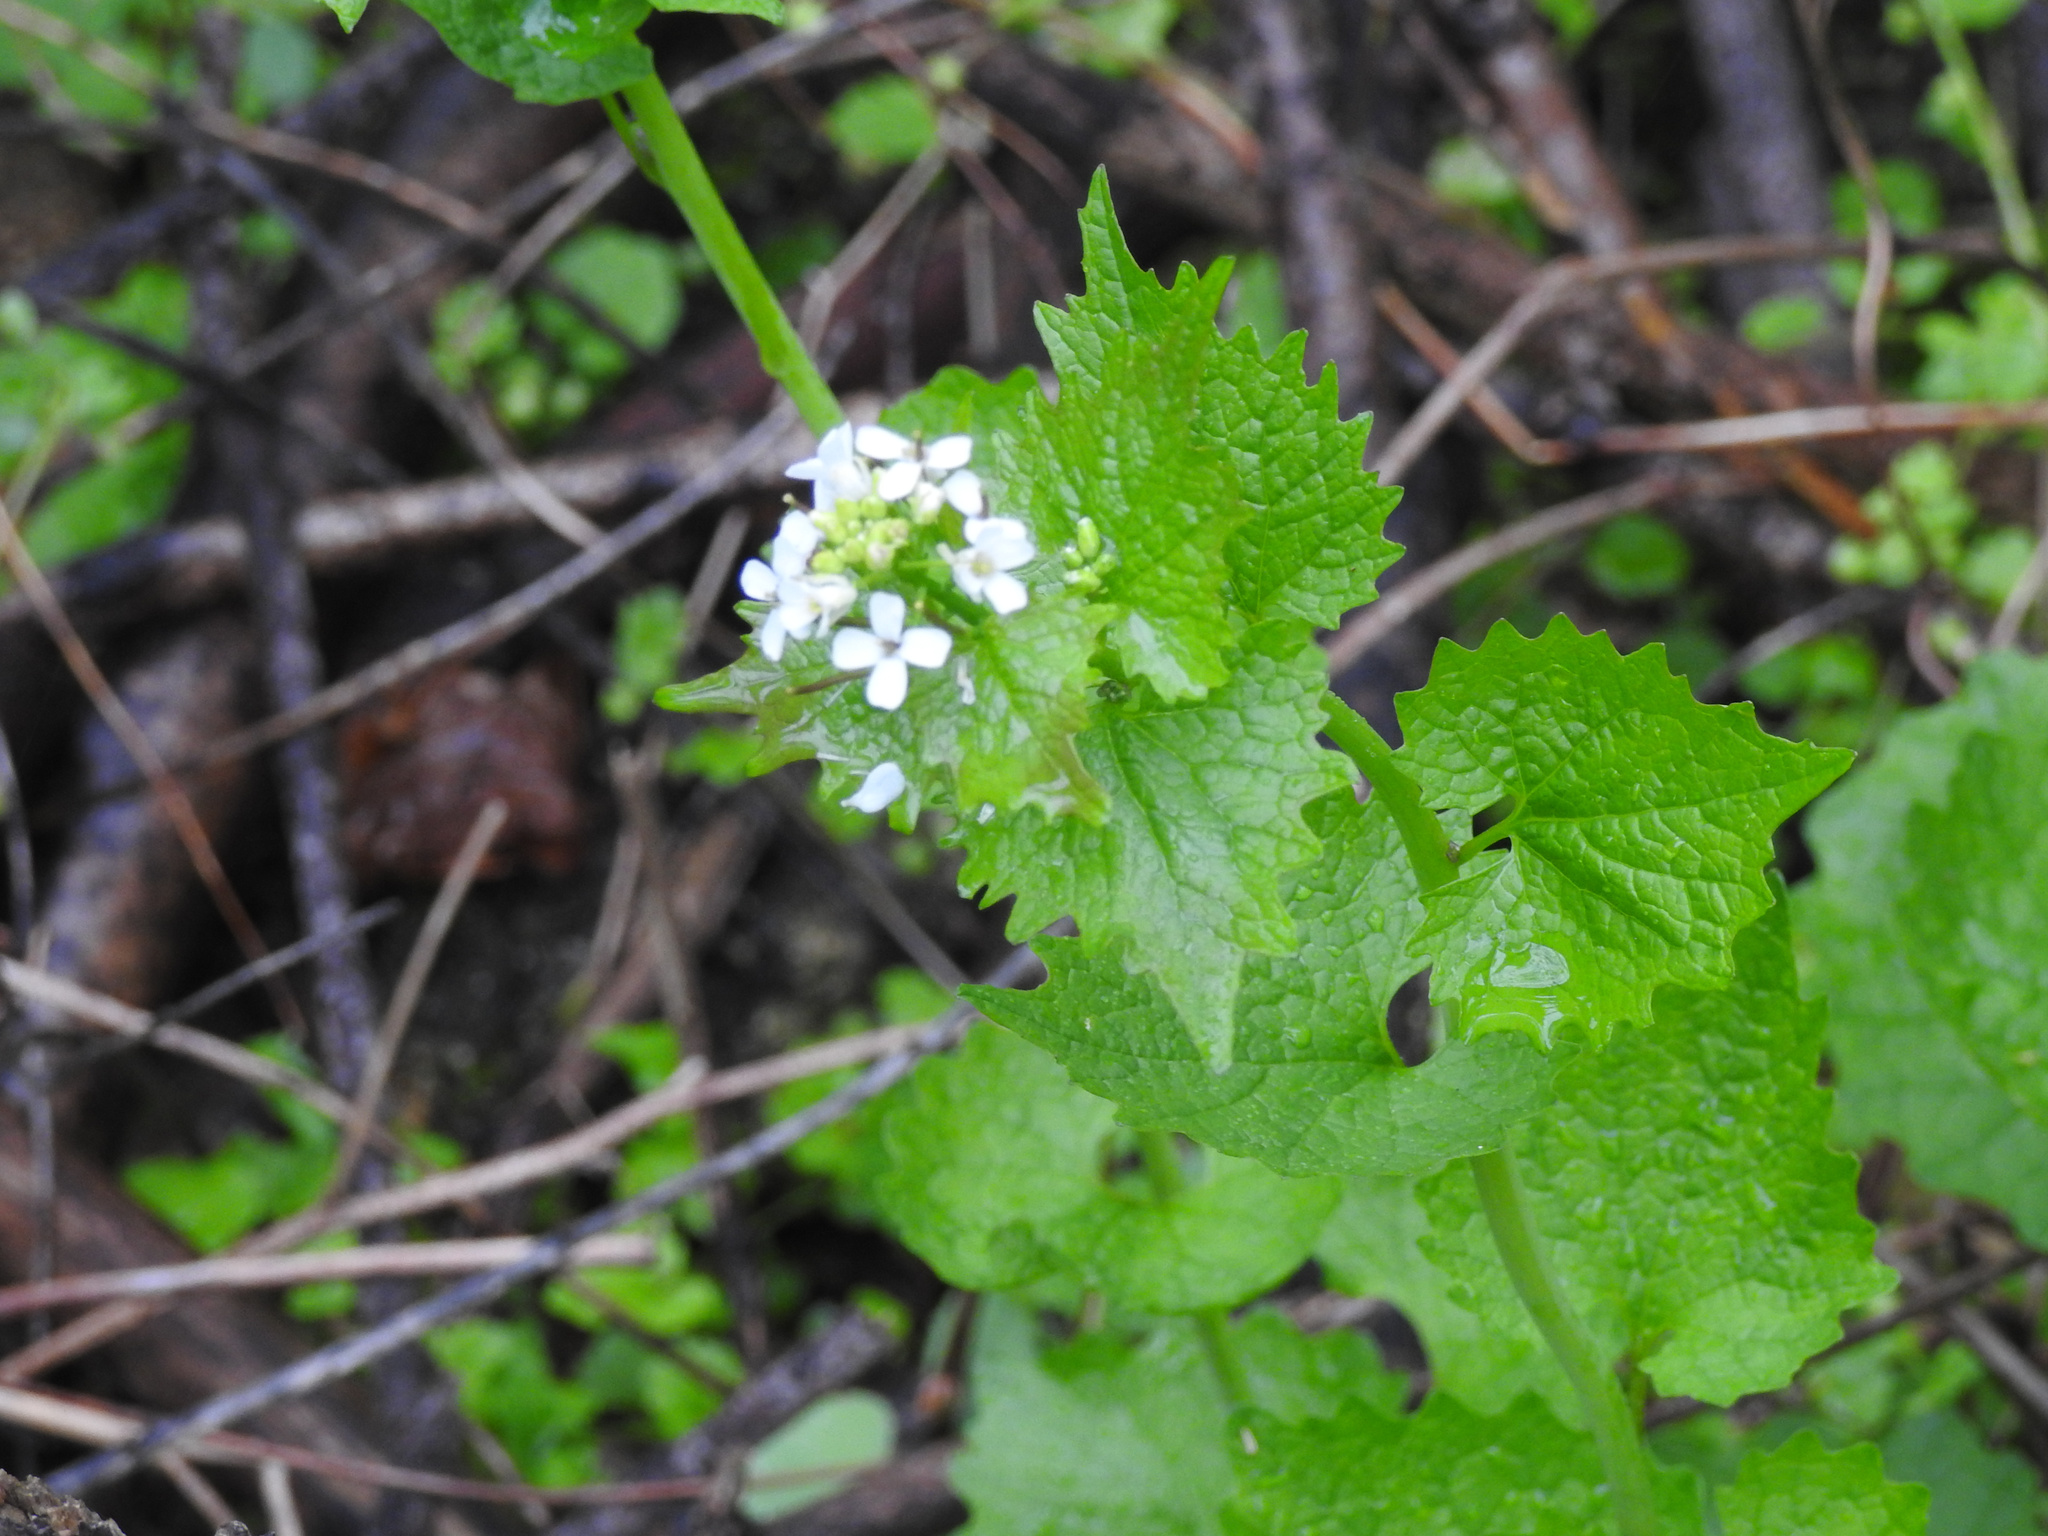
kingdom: Plantae
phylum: Tracheophyta
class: Magnoliopsida
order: Brassicales
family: Brassicaceae
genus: Alliaria
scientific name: Alliaria petiolata
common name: Garlic mustard
